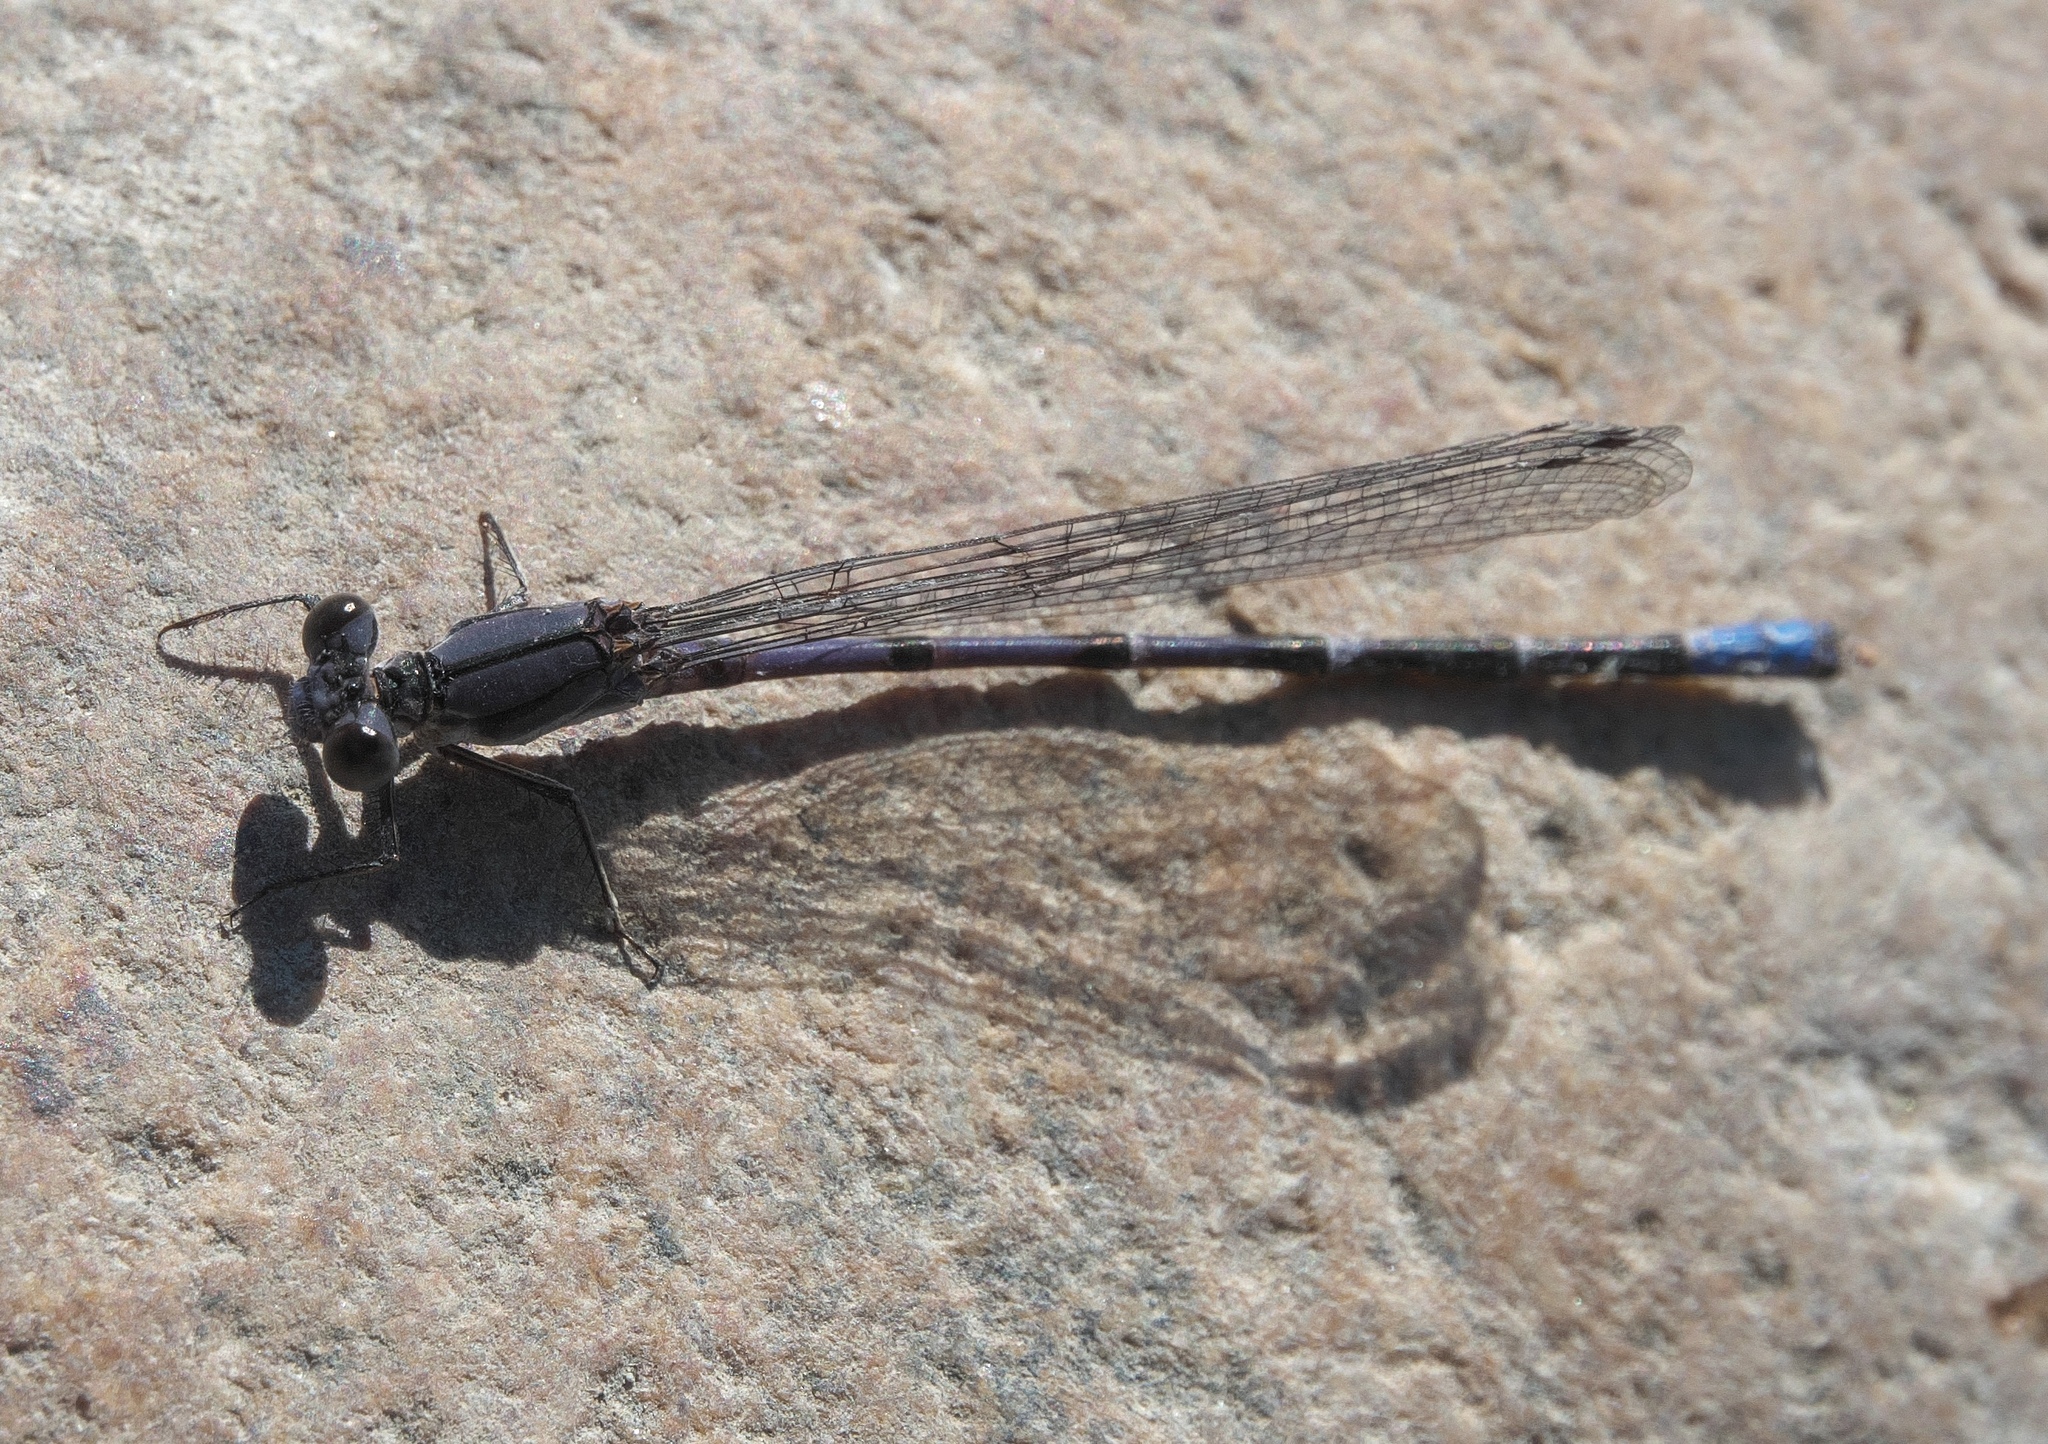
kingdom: Animalia
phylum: Arthropoda
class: Insecta
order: Odonata
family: Coenagrionidae
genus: Argia
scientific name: Argia emma
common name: Emma's dancer
